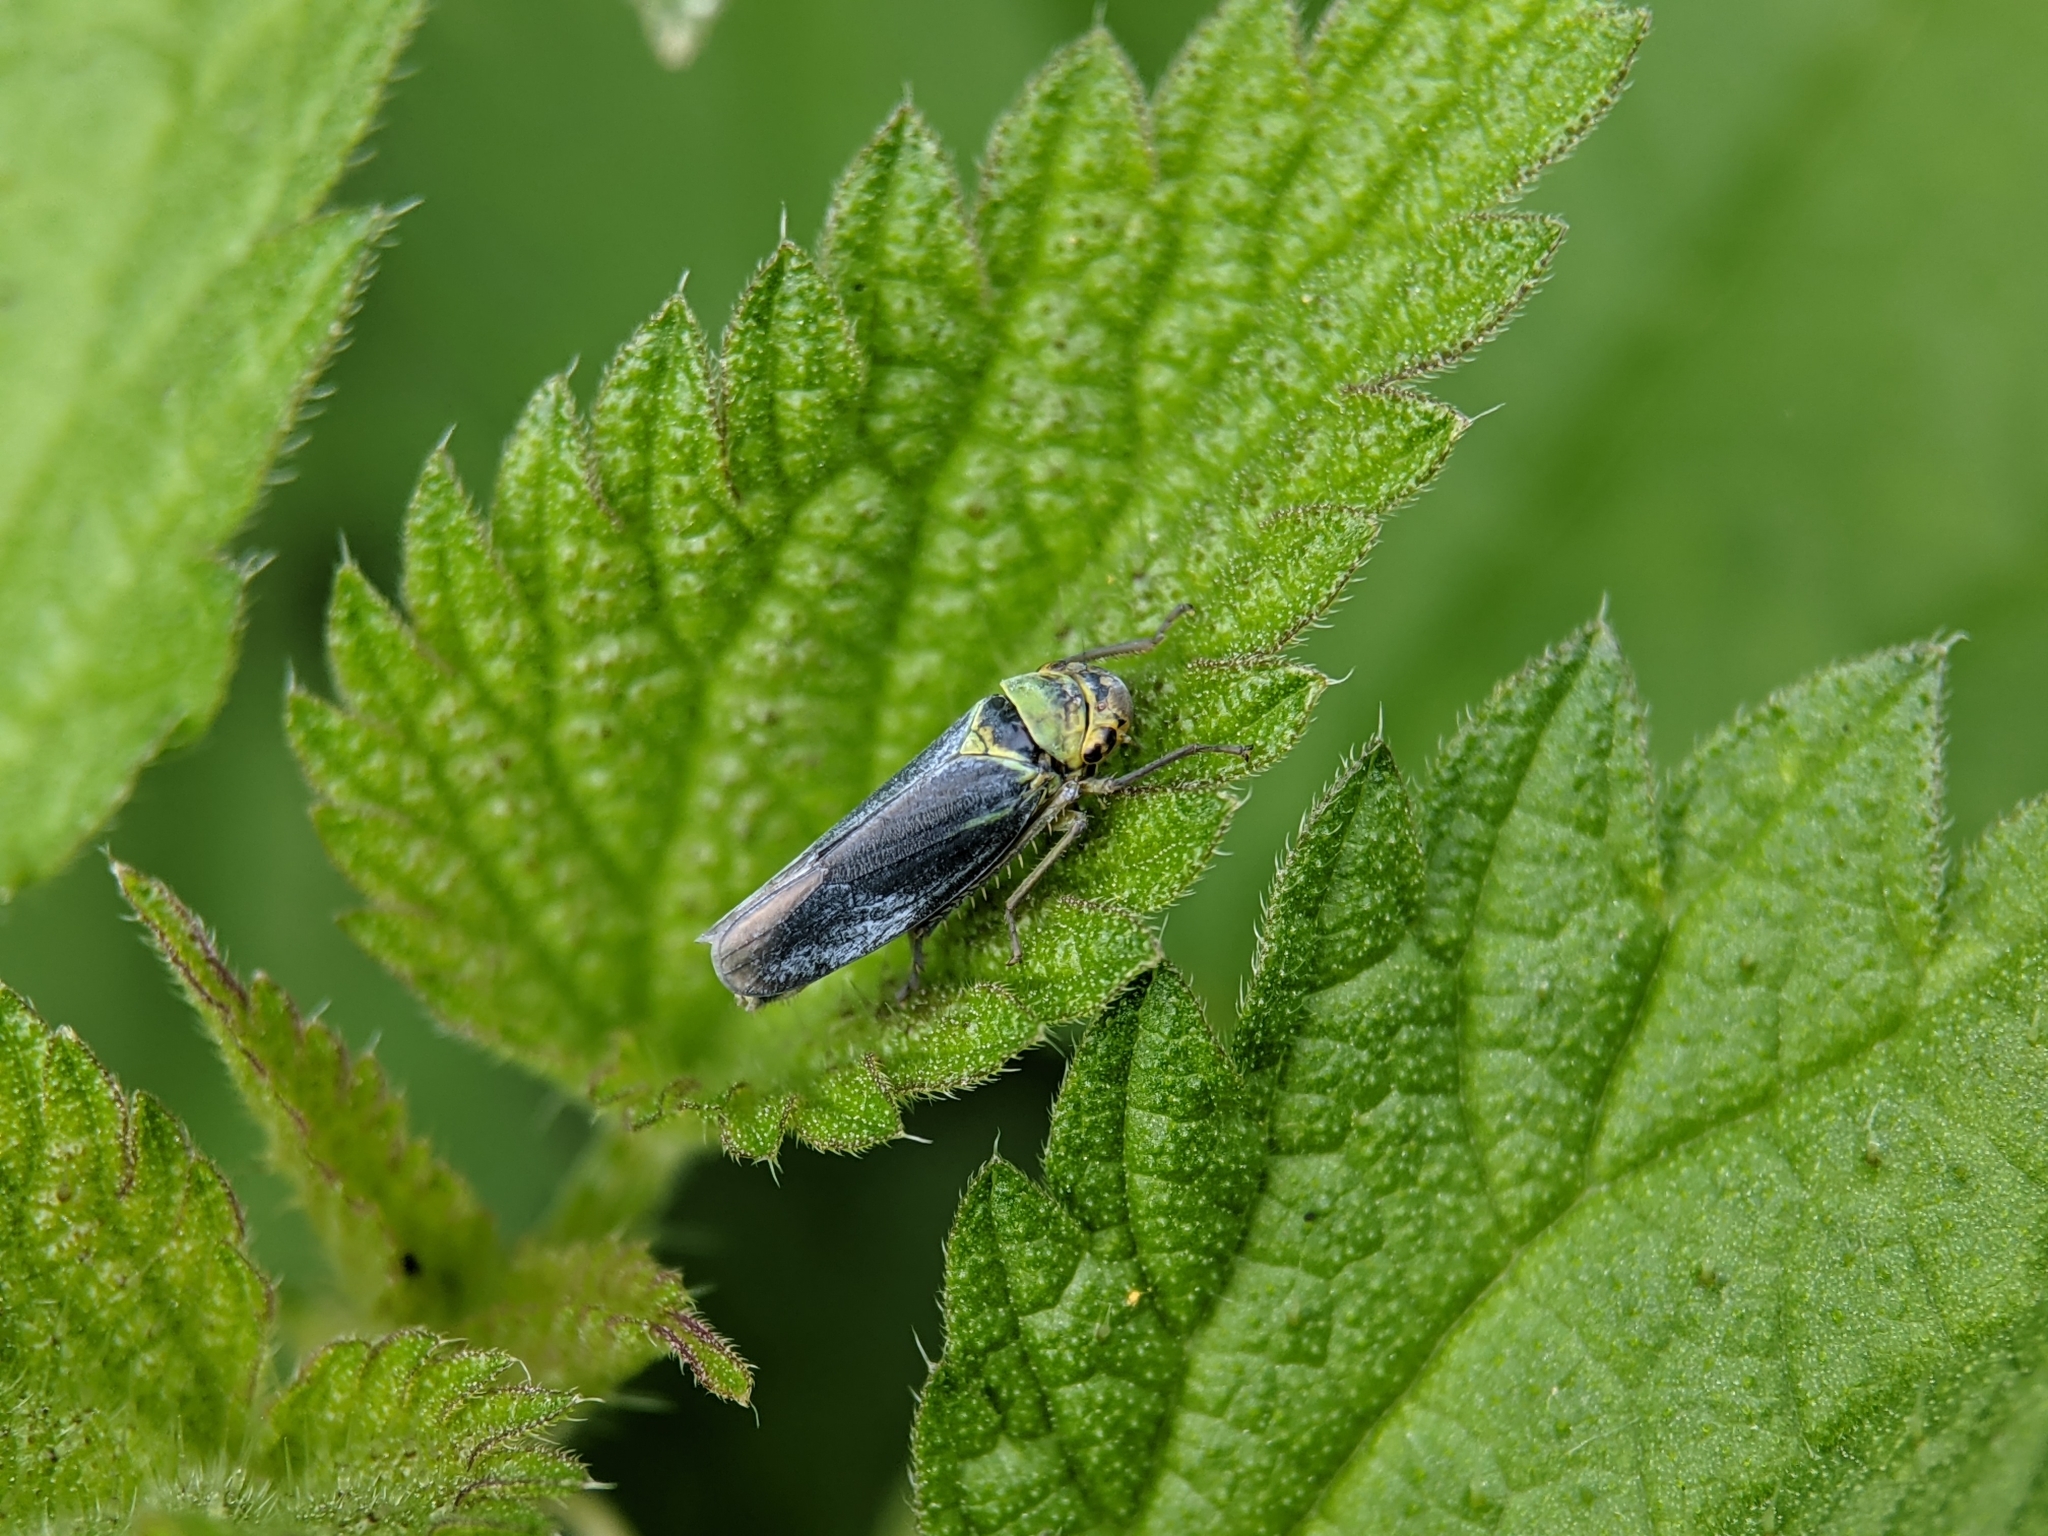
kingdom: Animalia
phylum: Arthropoda
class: Insecta
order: Hemiptera
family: Cicadellidae
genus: Cicadella
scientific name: Cicadella viridis
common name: Leafhopper
